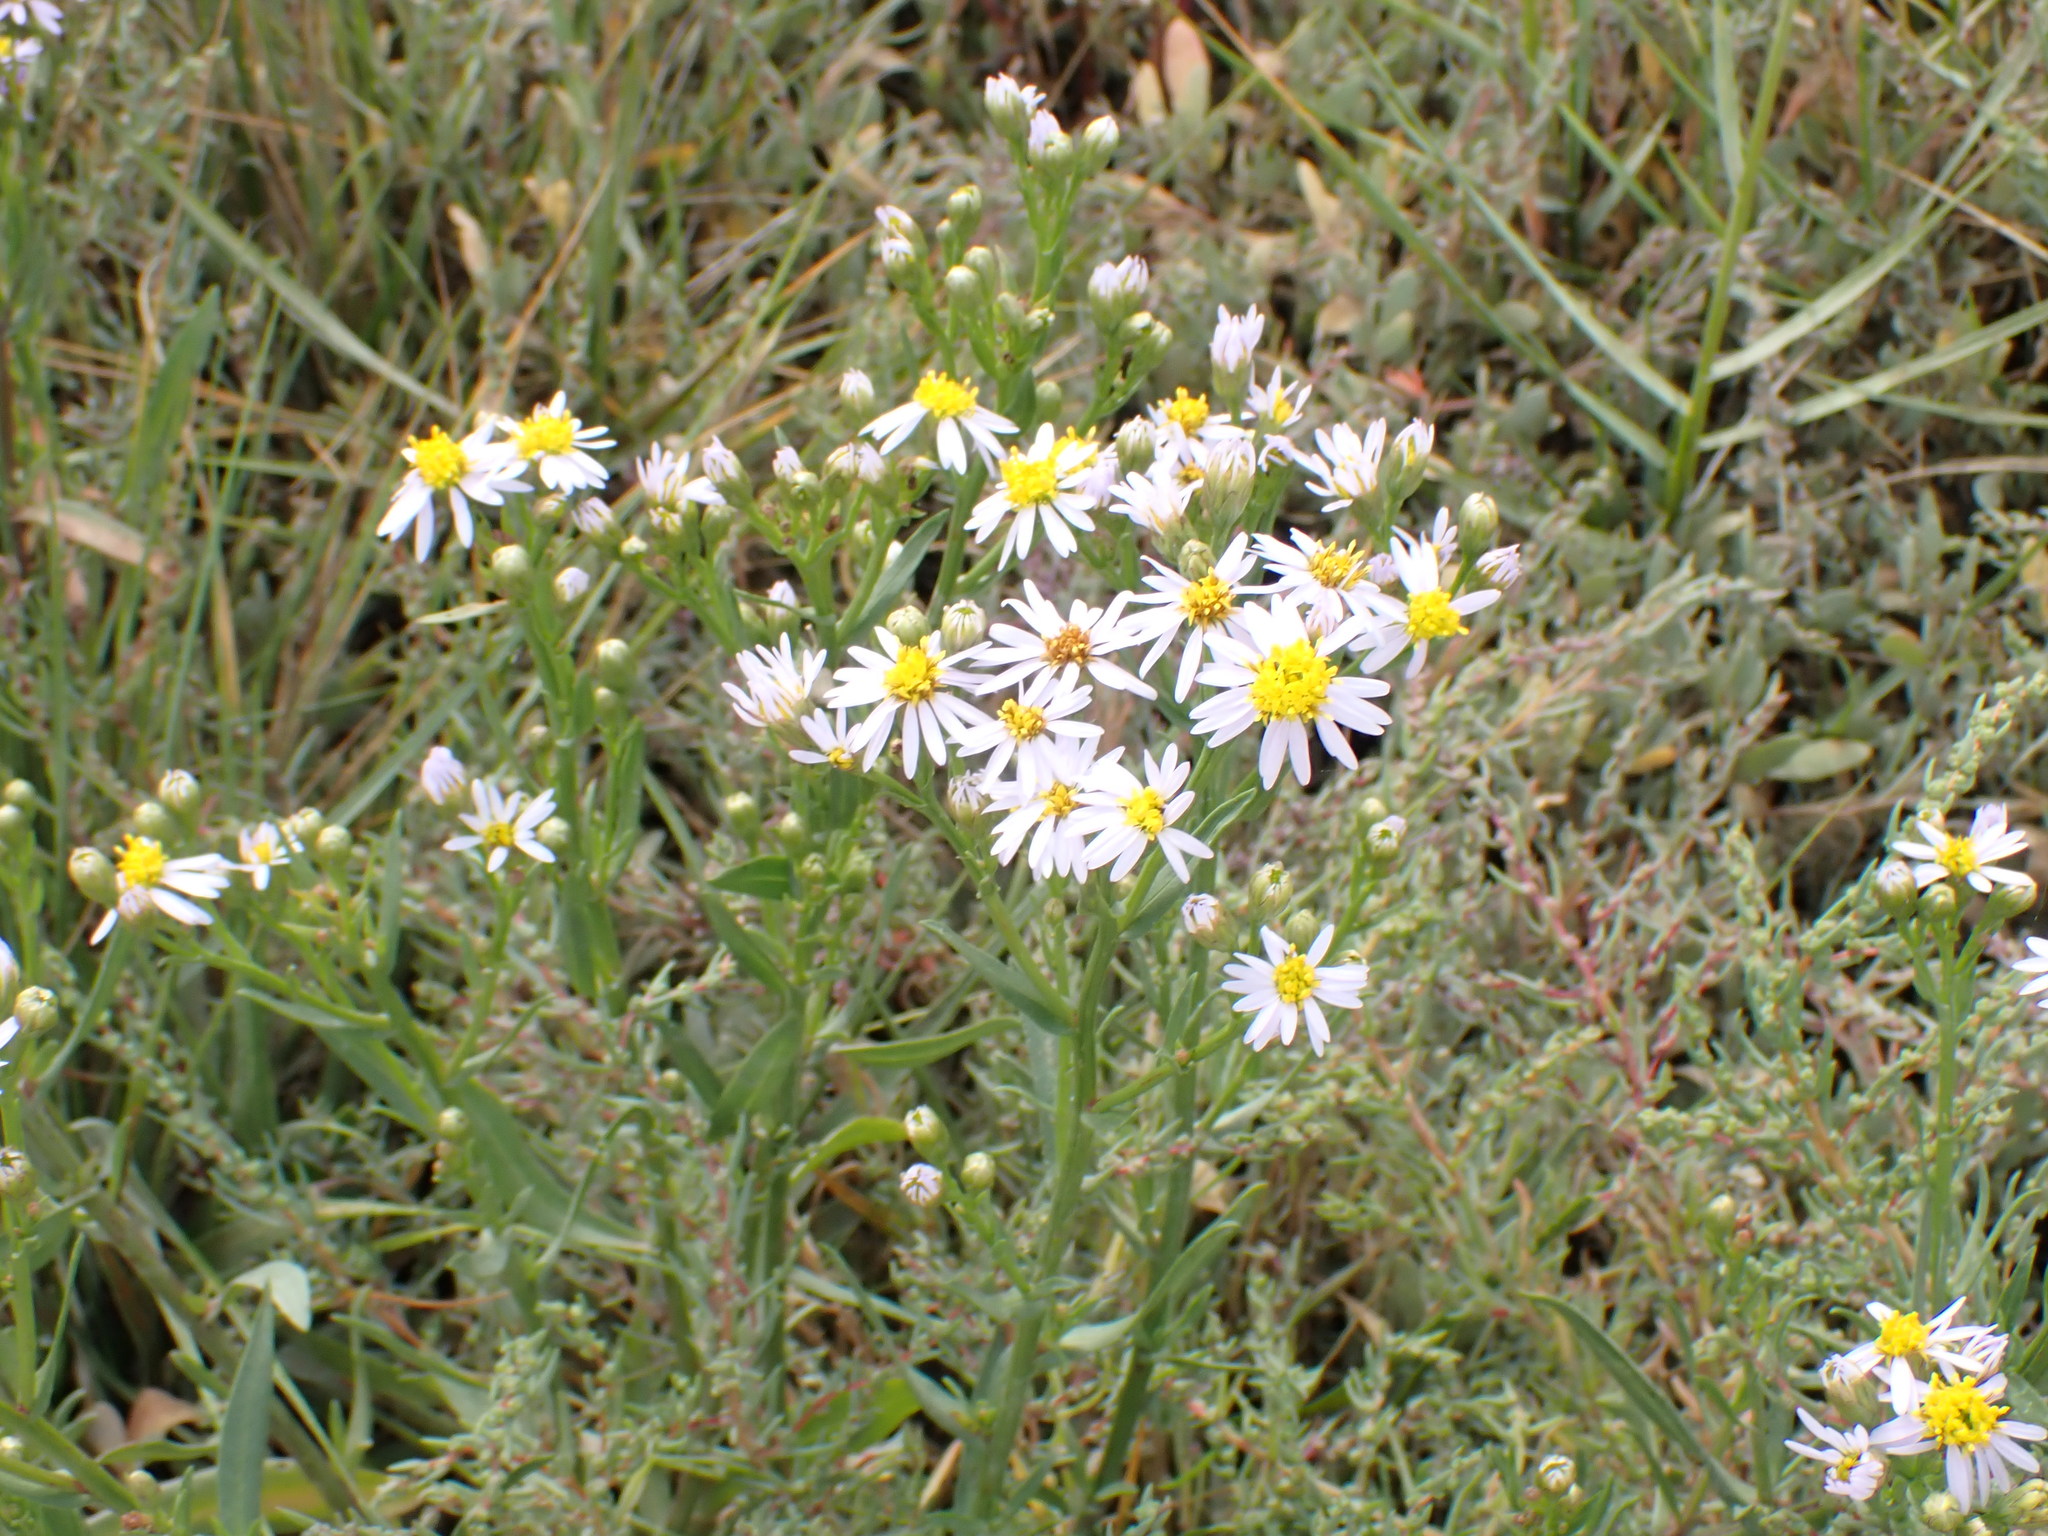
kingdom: Plantae
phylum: Tracheophyta
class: Magnoliopsida
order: Asterales
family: Asteraceae
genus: Tripolium
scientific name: Tripolium pannonicum
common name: Sea aster
